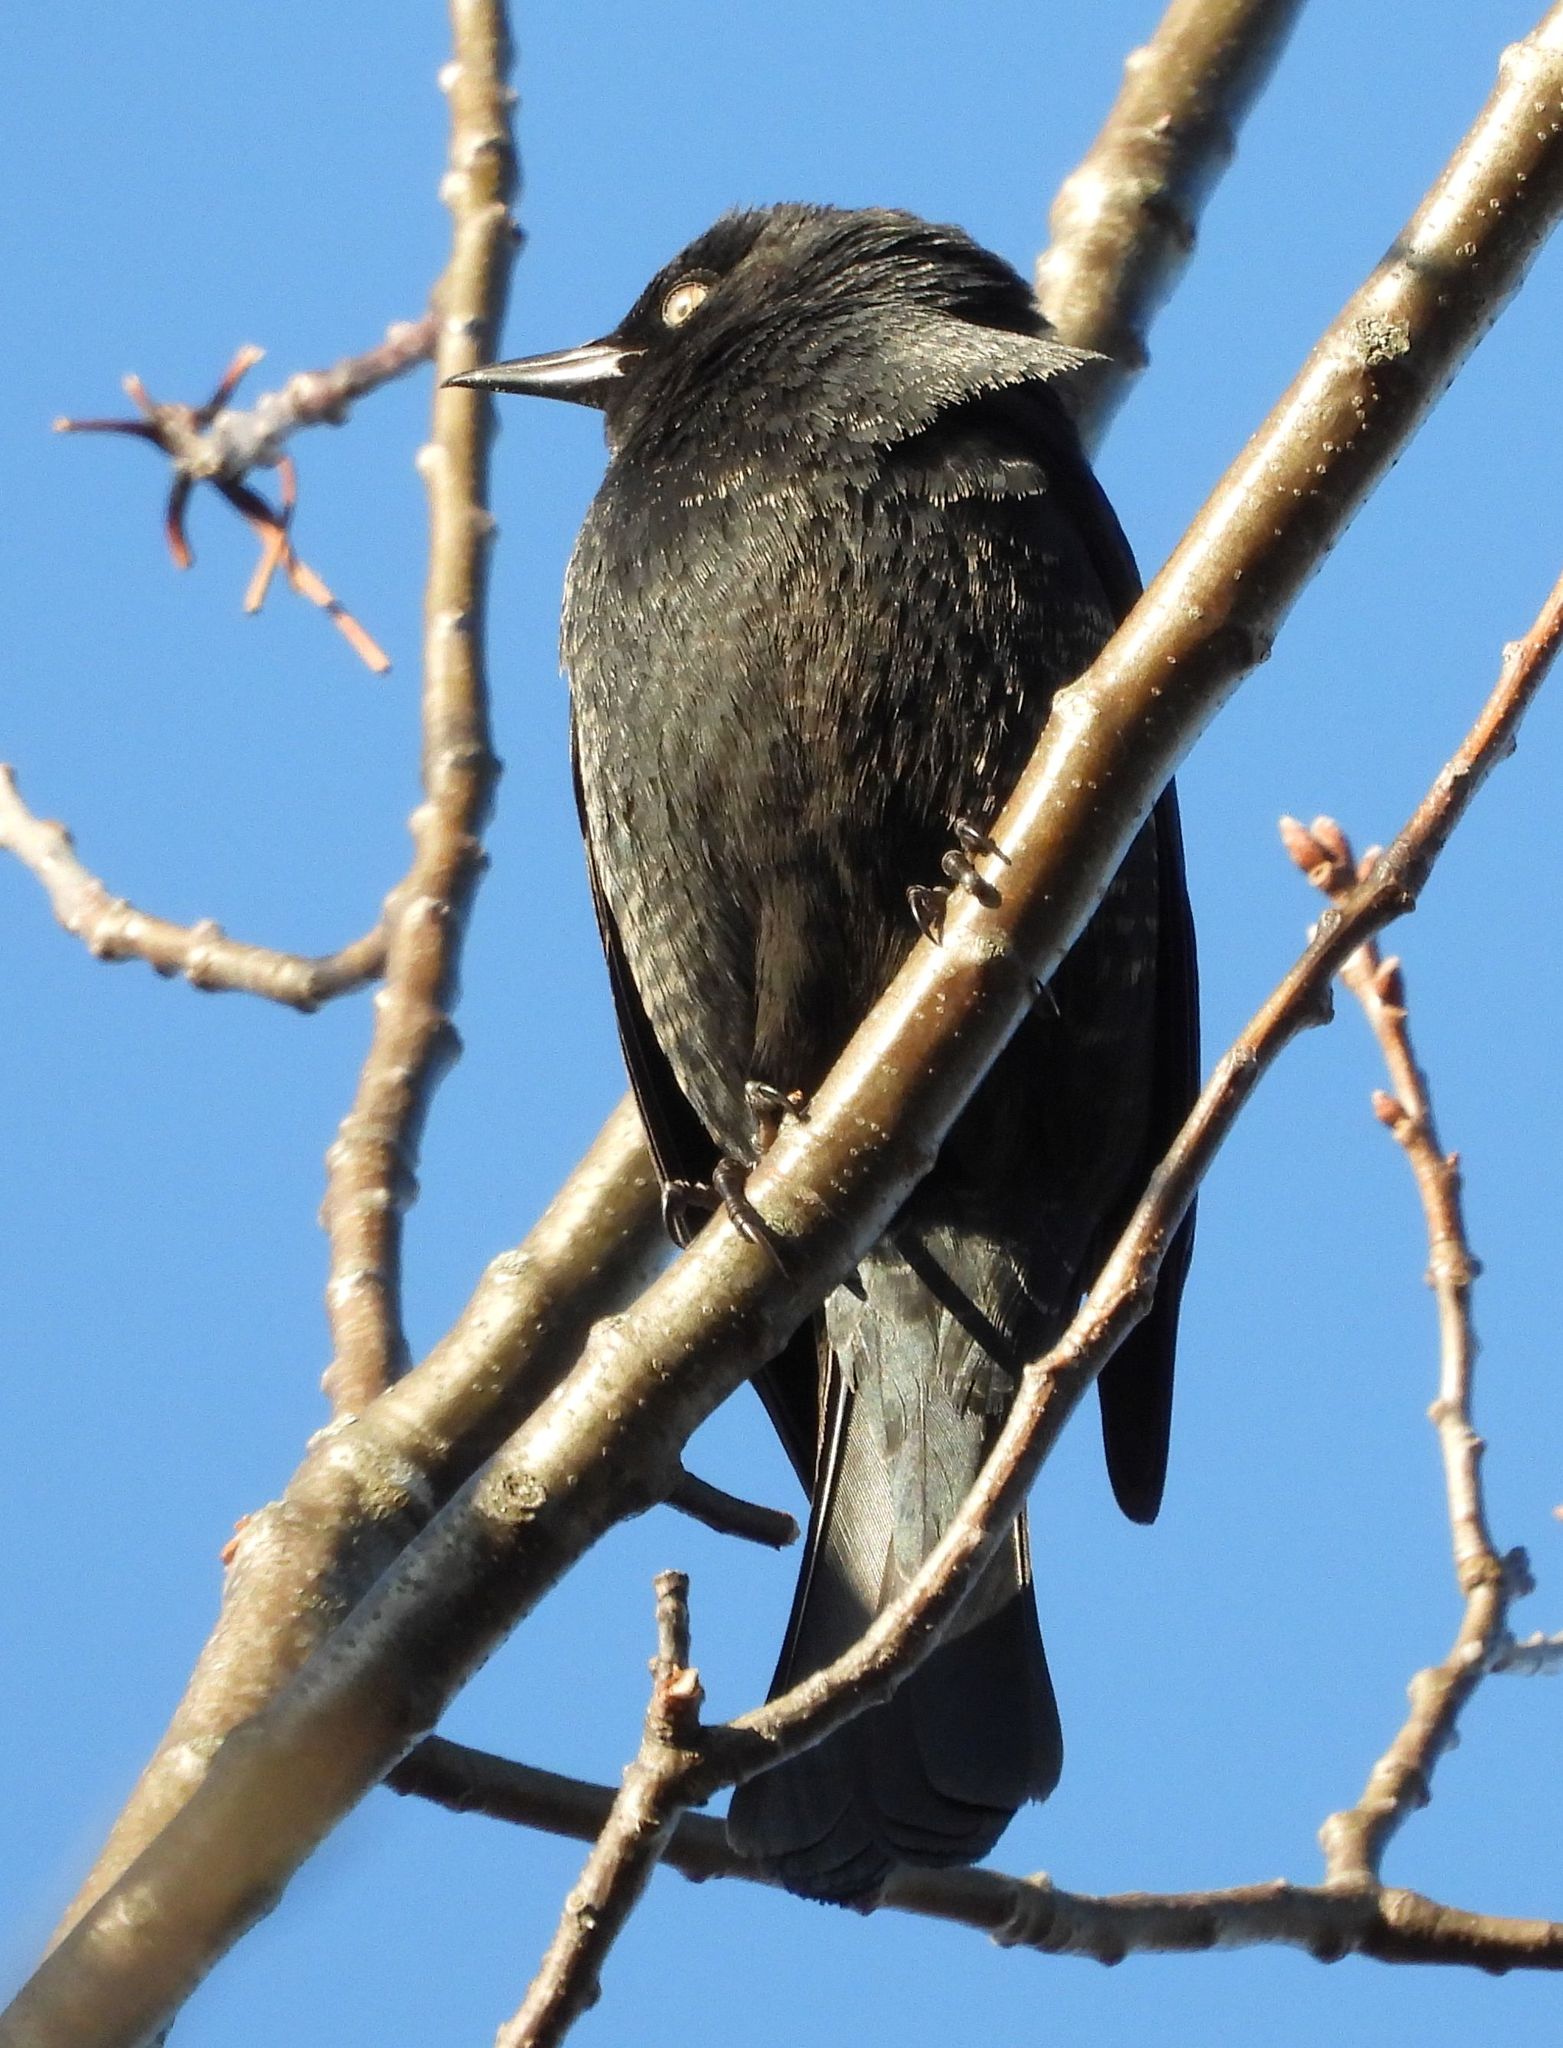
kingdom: Animalia
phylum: Chordata
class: Aves
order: Passeriformes
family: Icteridae
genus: Euphagus
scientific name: Euphagus carolinus
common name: Rusty blackbird
